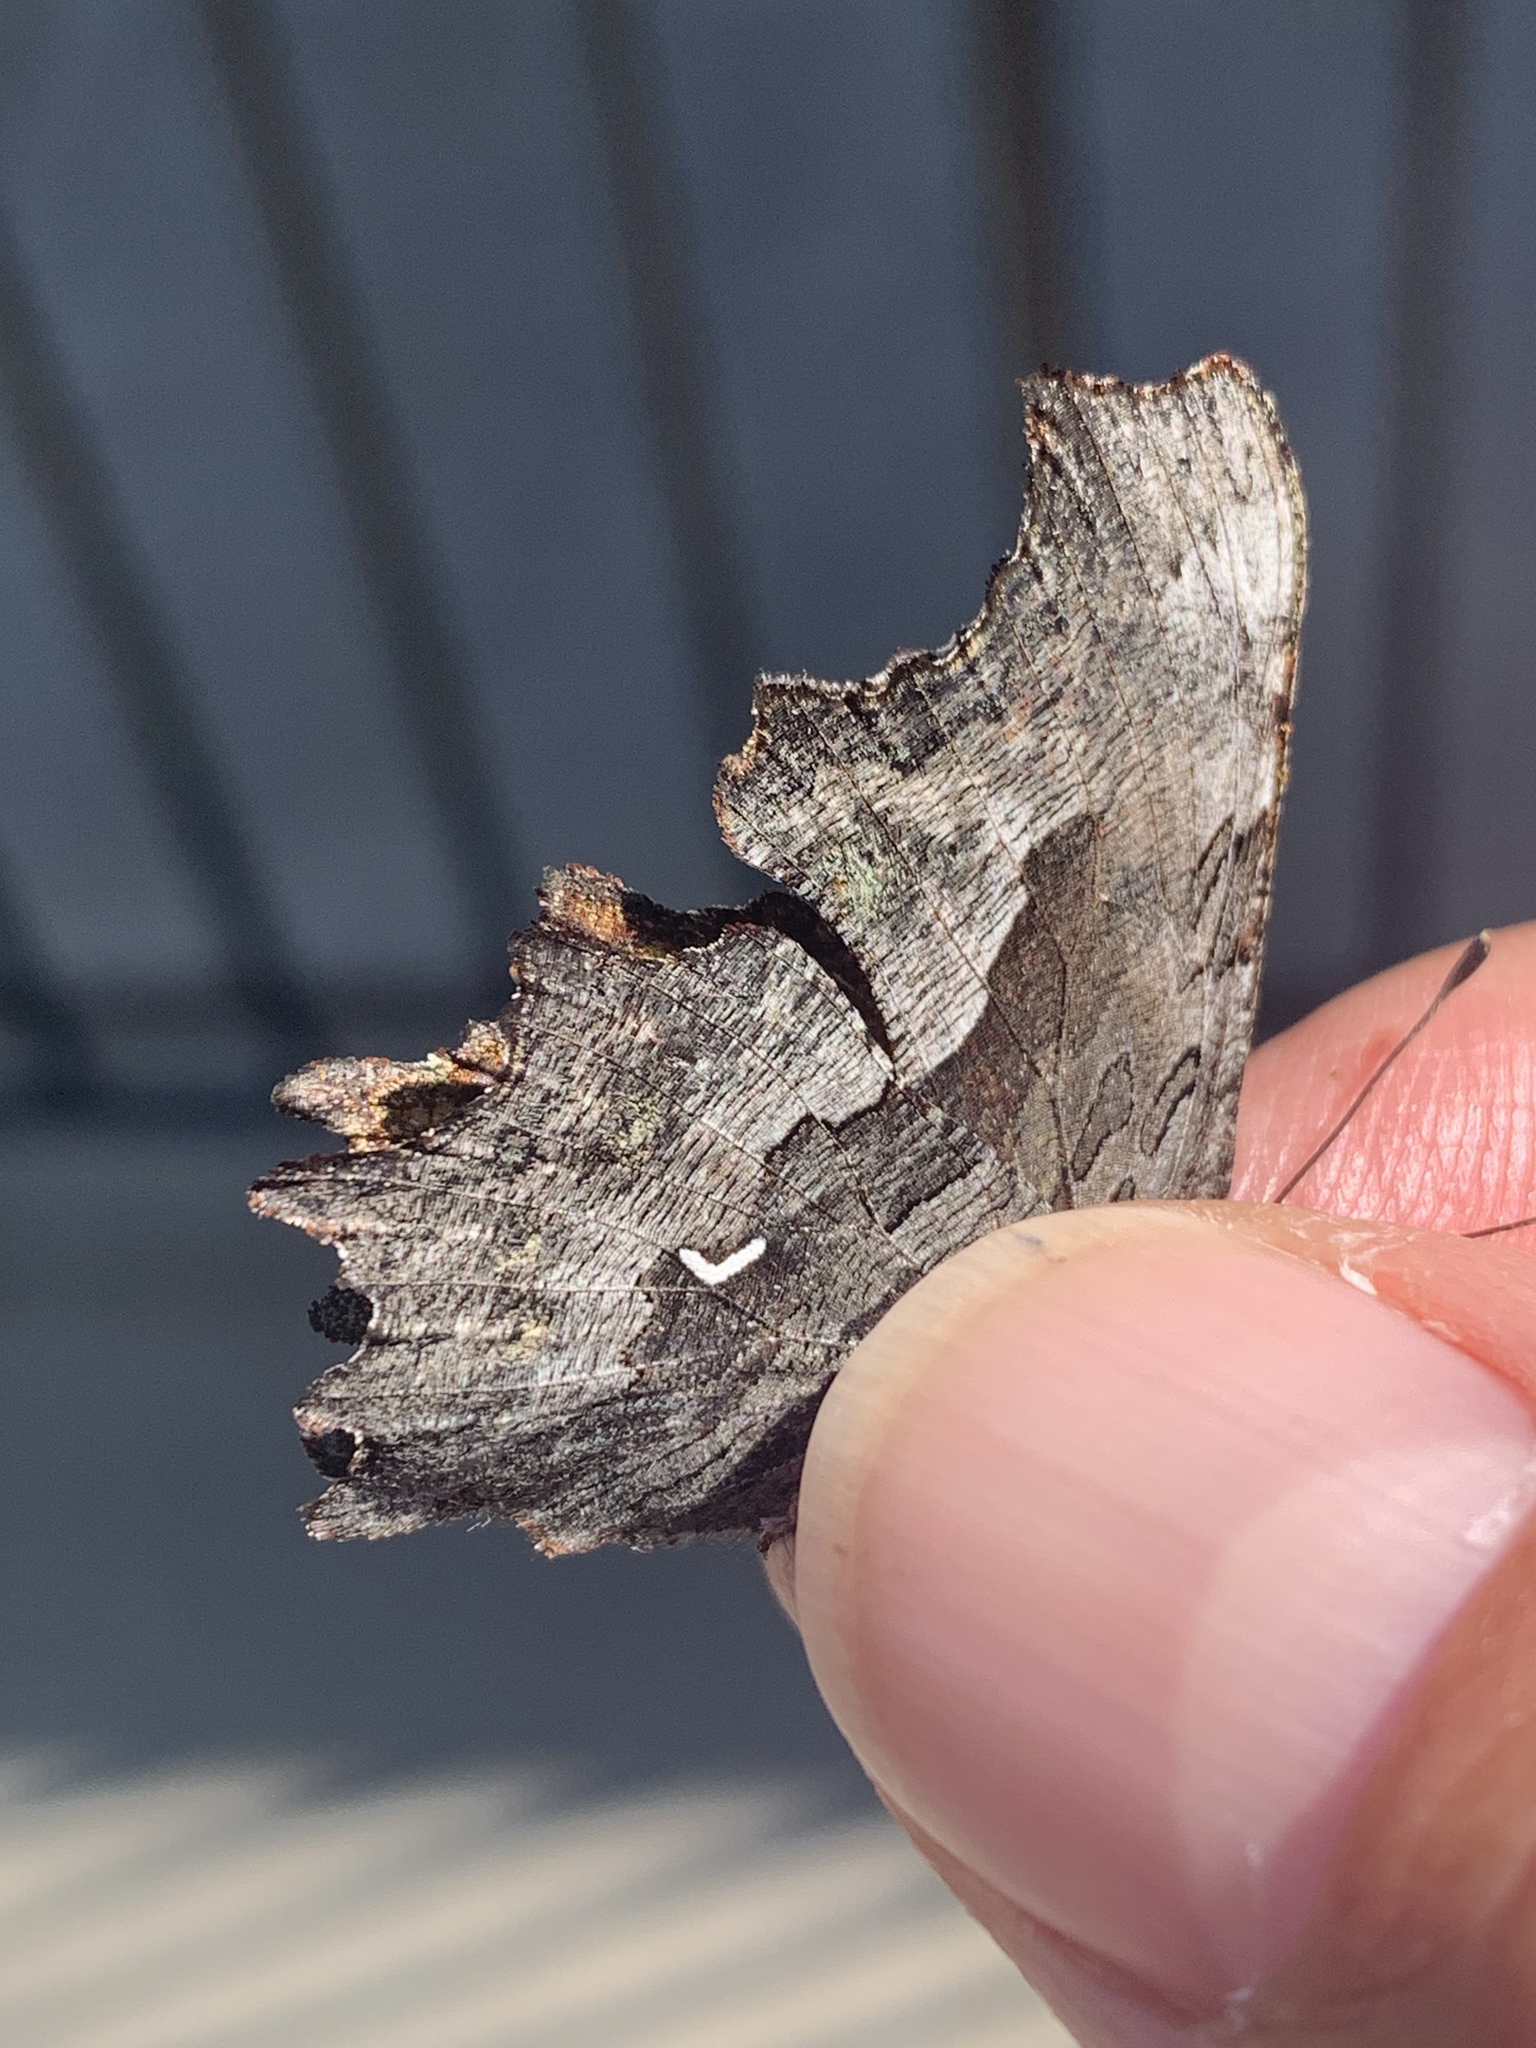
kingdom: Animalia
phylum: Arthropoda
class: Insecta
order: Lepidoptera
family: Nymphalidae
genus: Polygonia
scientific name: Polygonia gracilis
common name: Hoary comma
